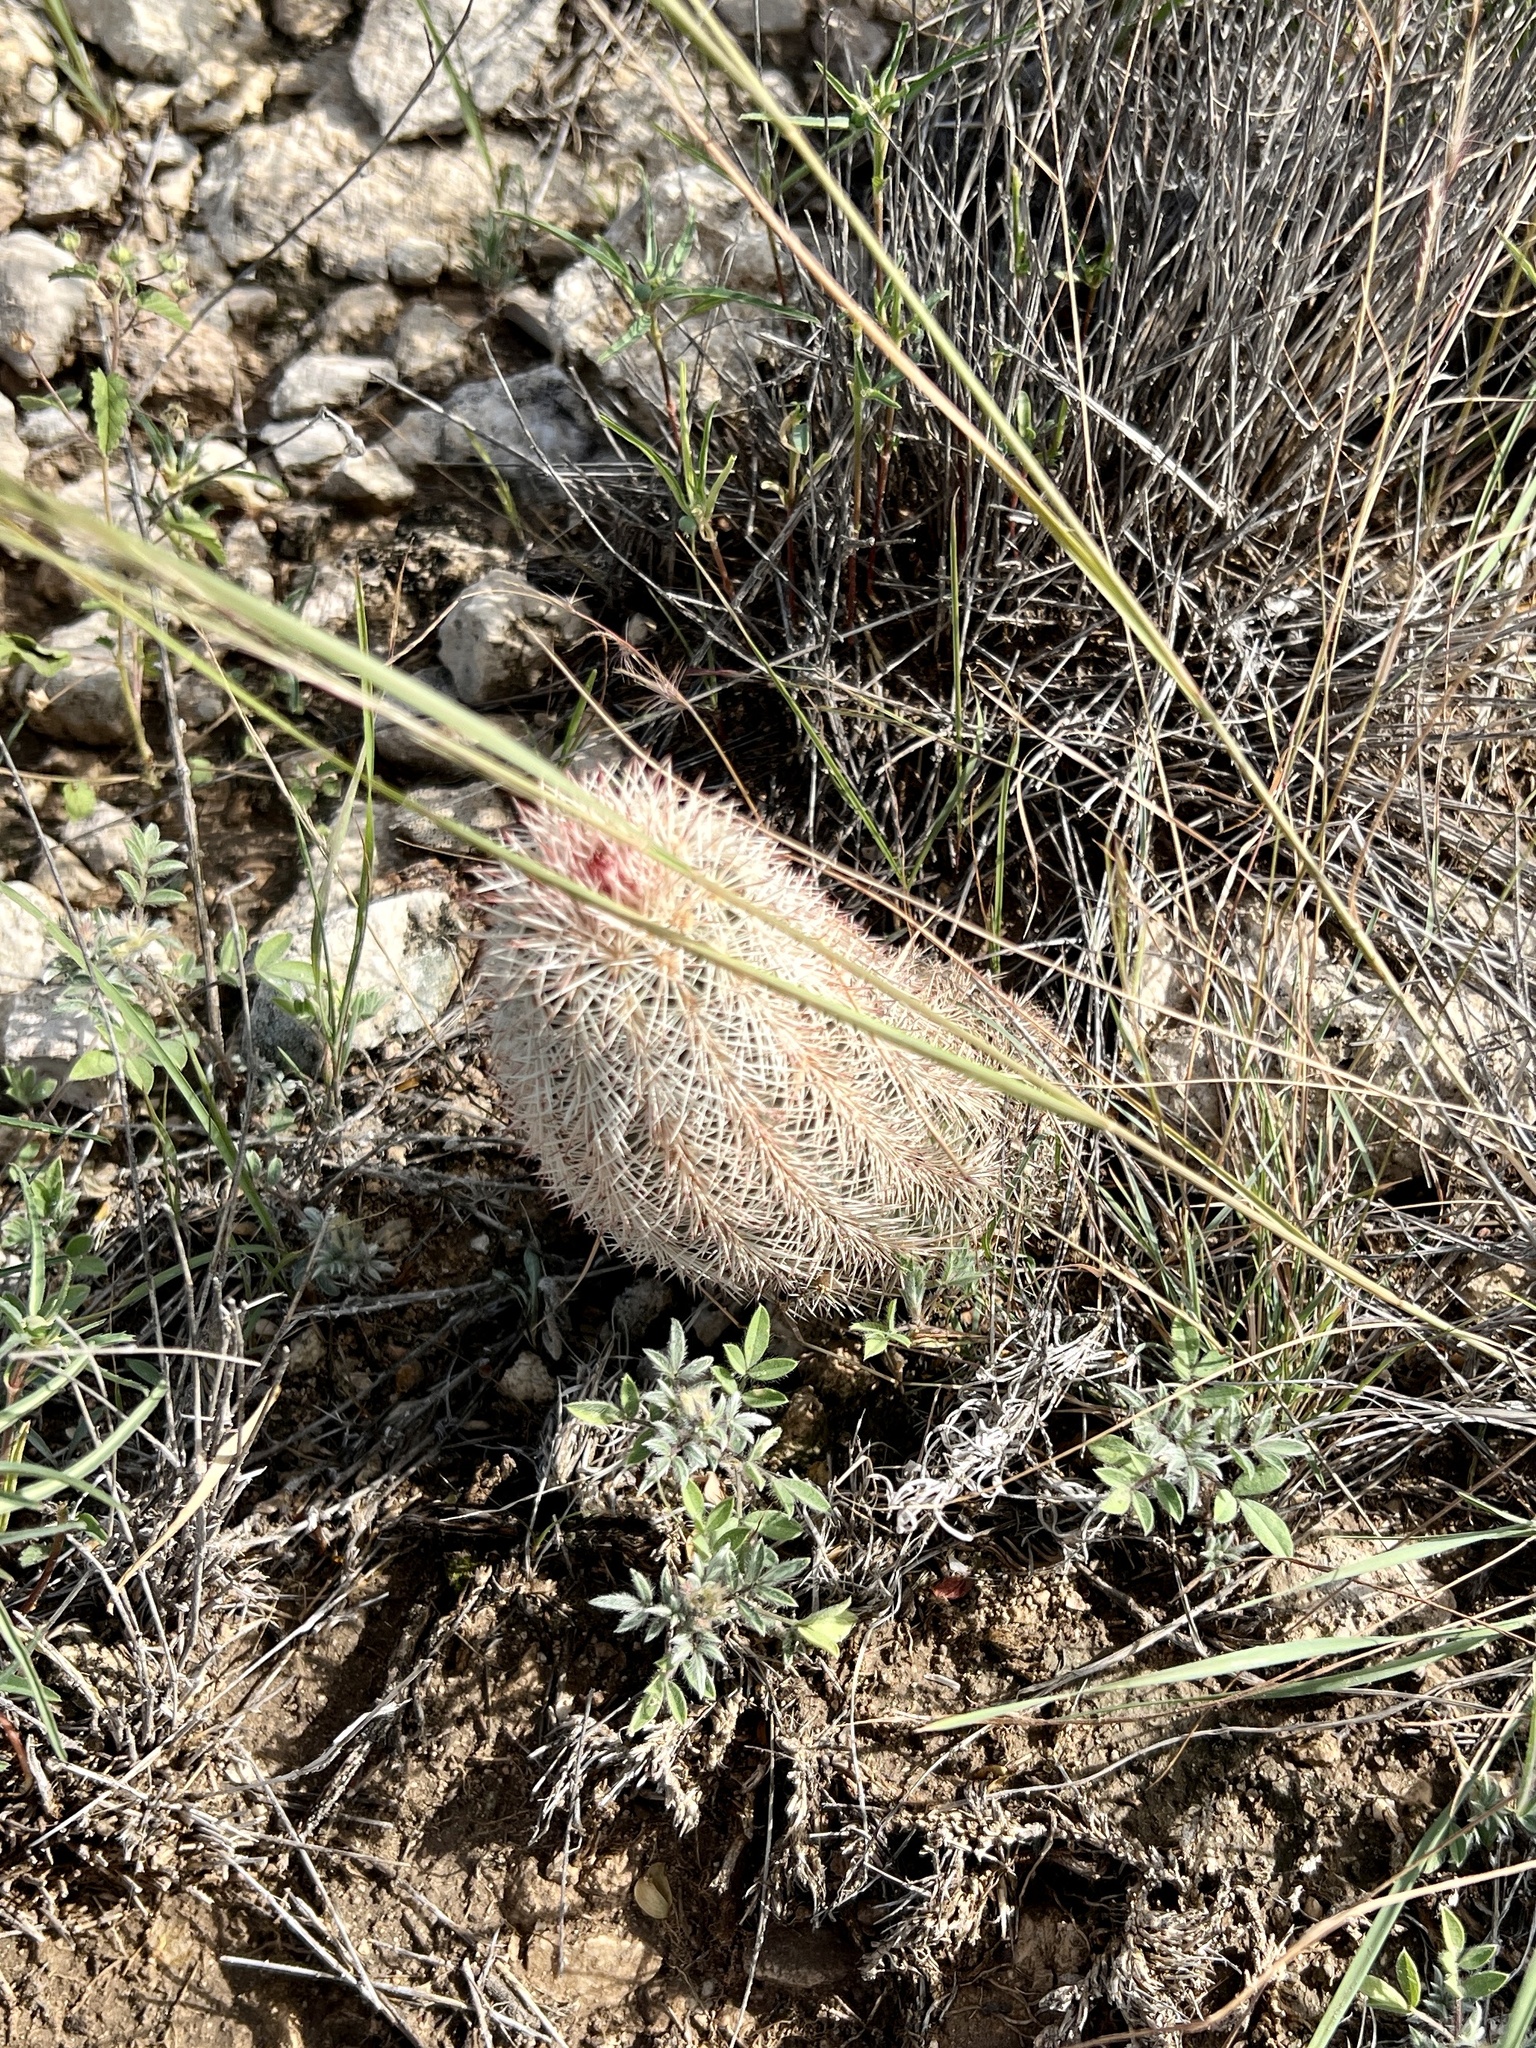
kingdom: Plantae
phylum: Tracheophyta
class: Magnoliopsida
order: Caryophyllales
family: Cactaceae
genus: Echinocereus
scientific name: Echinocereus dasyacanthus
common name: Spiny hedgehog cactus
